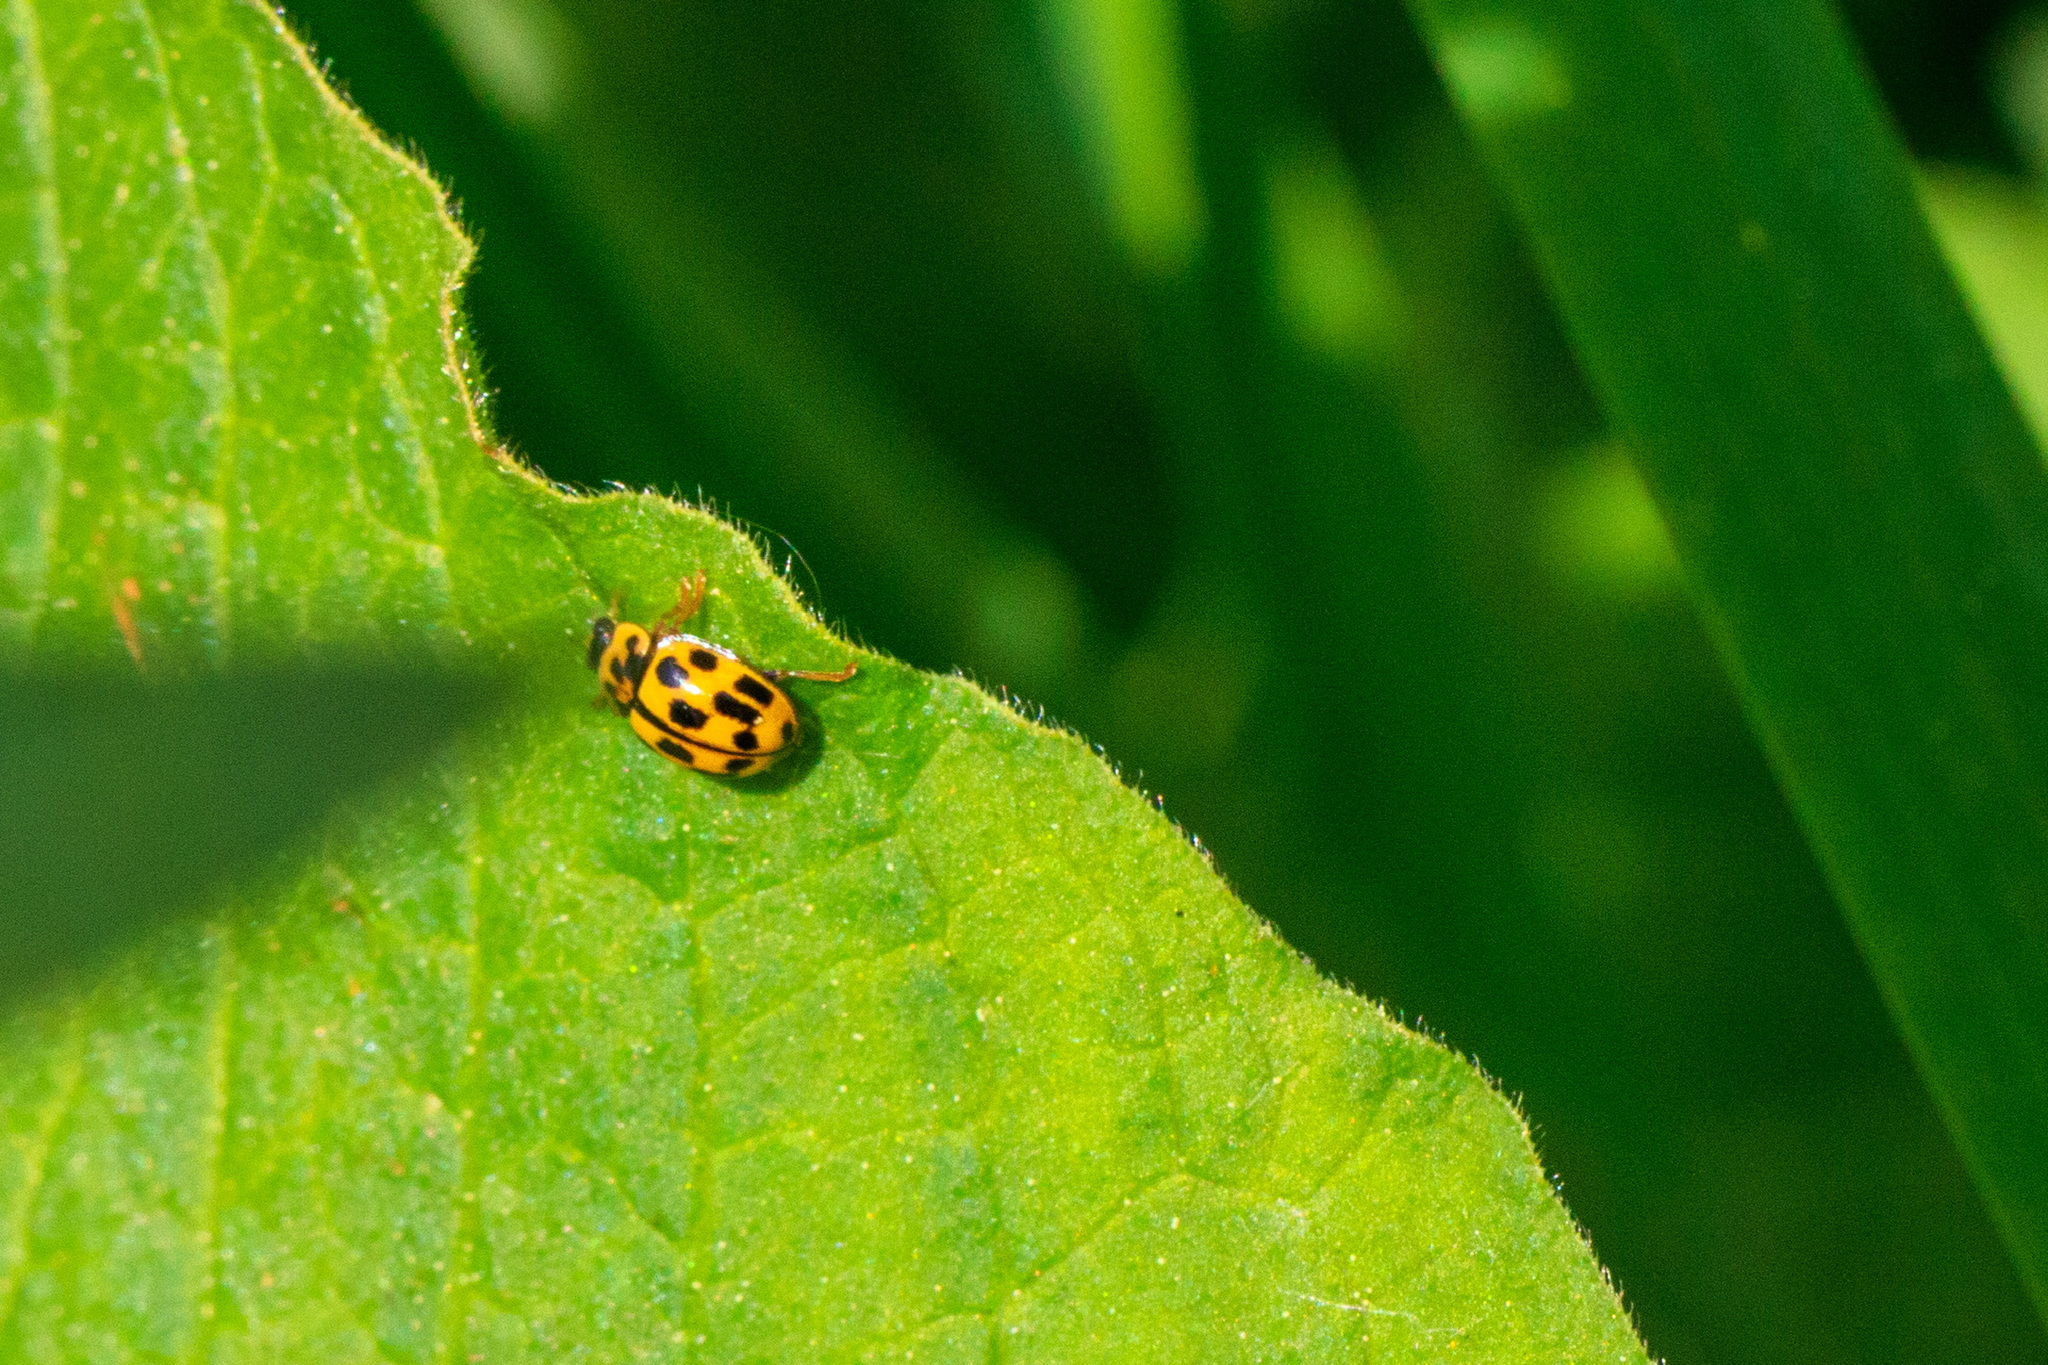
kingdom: Animalia
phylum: Arthropoda
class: Insecta
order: Coleoptera
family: Coccinellidae
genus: Propylaea
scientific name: Propylaea quatuordecimpunctata
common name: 14-spotted ladybird beetle
